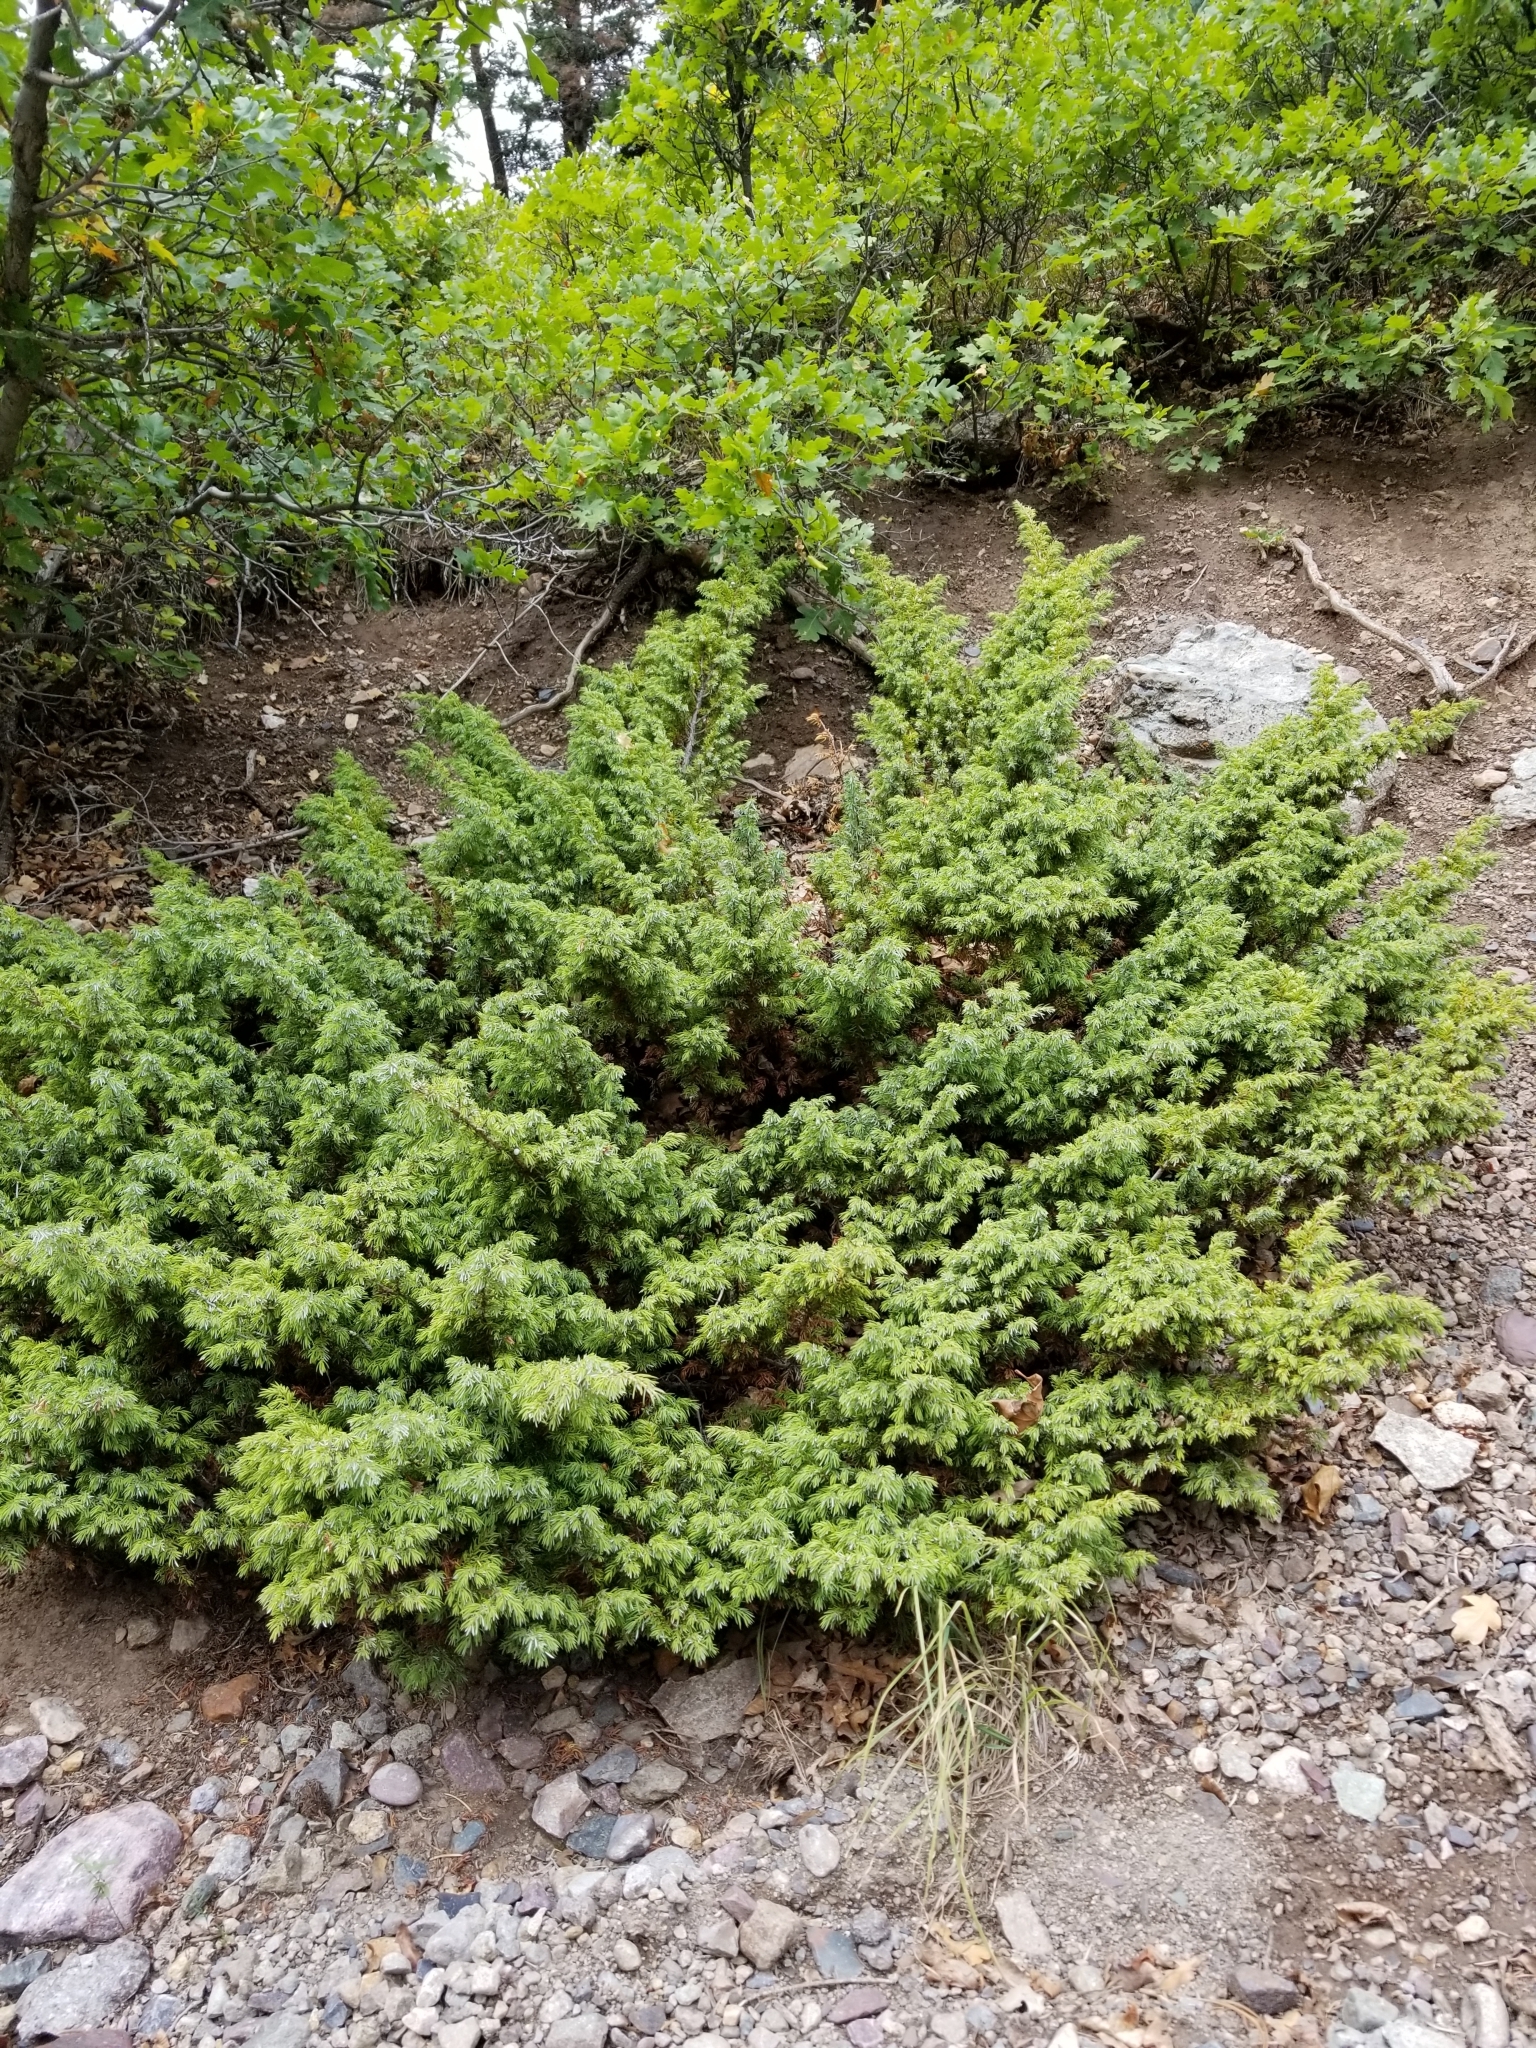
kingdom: Plantae
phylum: Tracheophyta
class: Pinopsida
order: Pinales
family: Cupressaceae
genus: Juniperus
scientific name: Juniperus communis
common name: Common juniper
